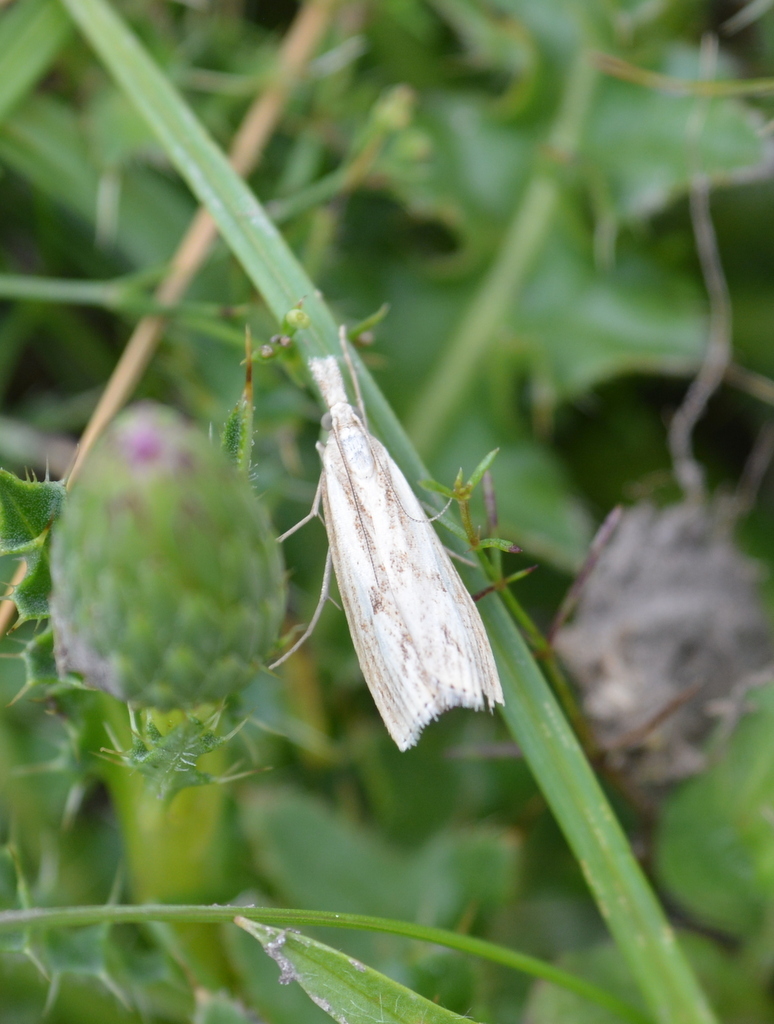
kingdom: Animalia
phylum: Arthropoda
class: Insecta
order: Lepidoptera
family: Crambidae
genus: Agriphila
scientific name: Agriphila inquinatella
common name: Barred grass-veneer
